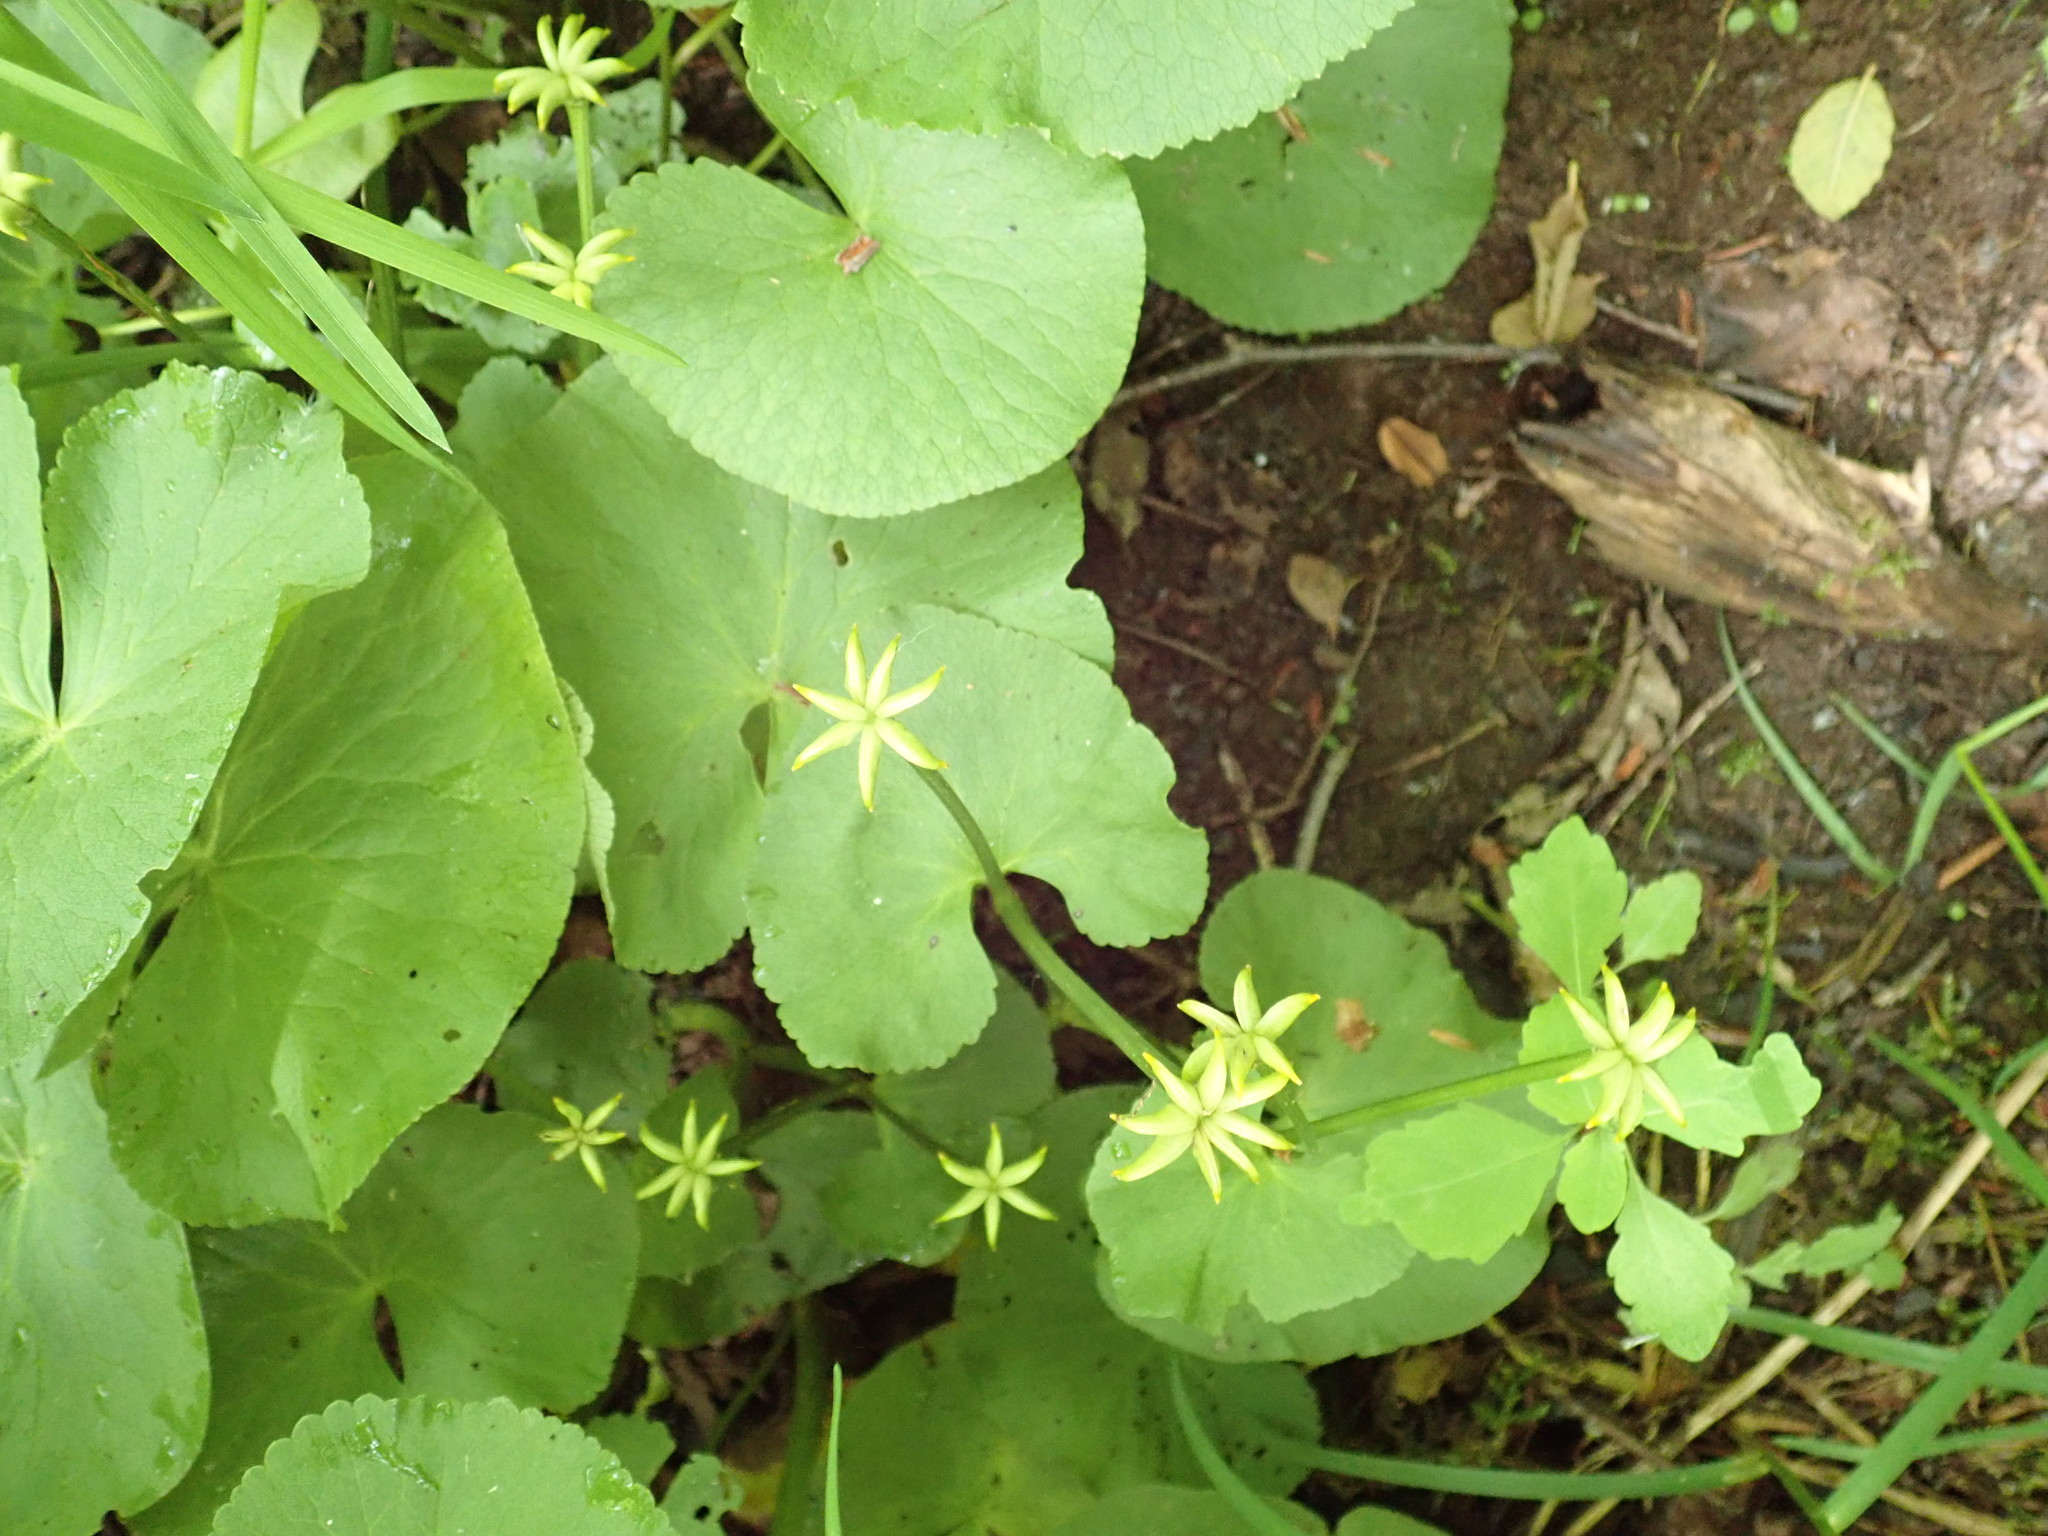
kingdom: Plantae
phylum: Tracheophyta
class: Magnoliopsida
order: Ranunculales
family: Ranunculaceae
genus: Caltha
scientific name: Caltha palustris
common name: Marsh marigold
